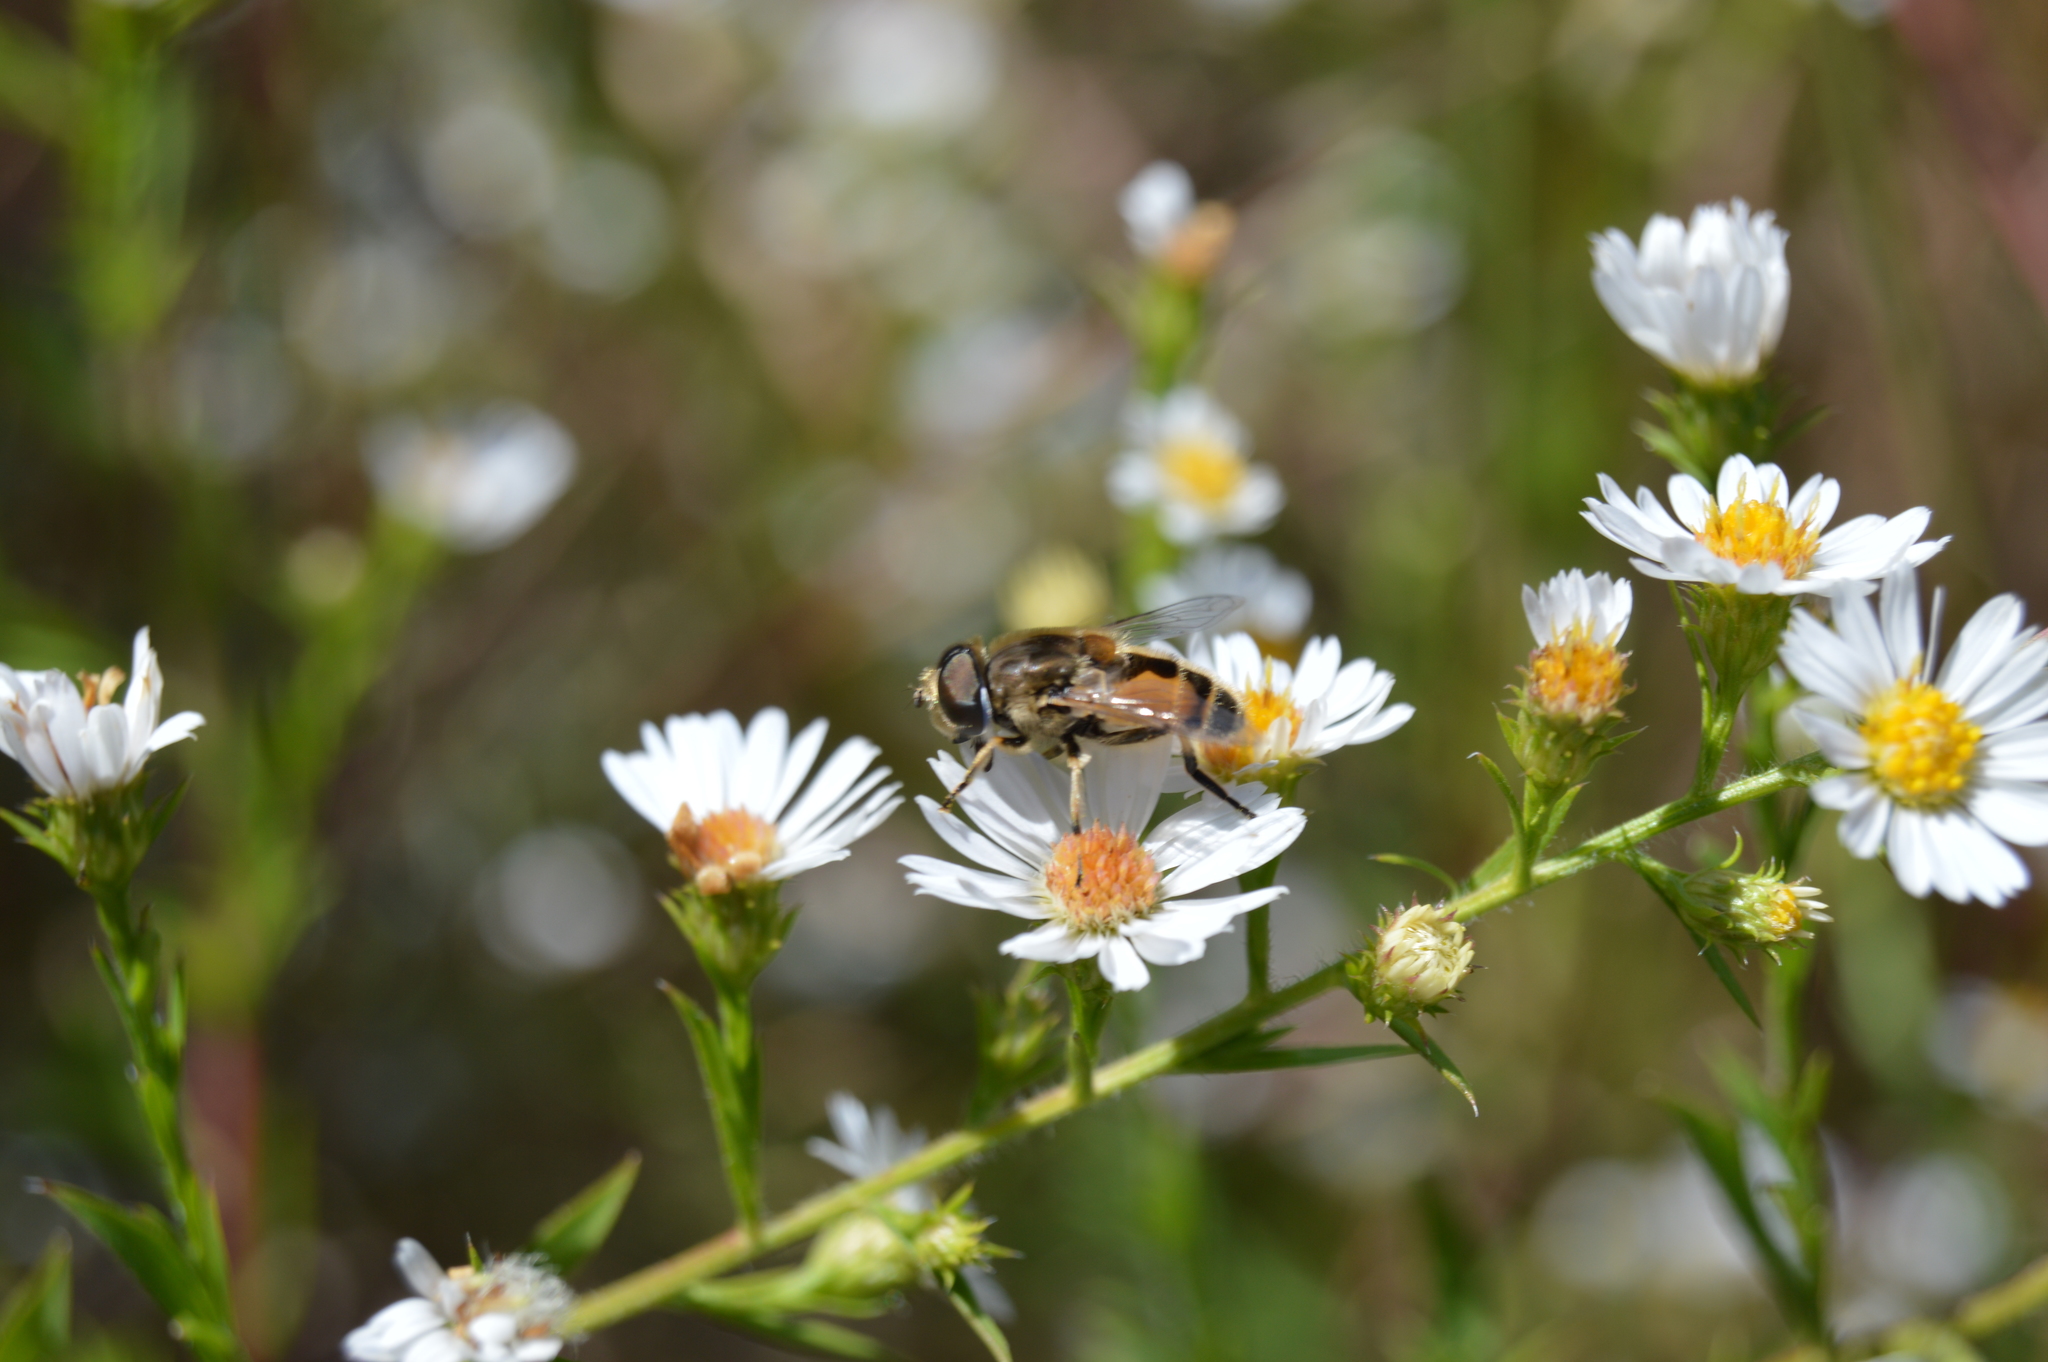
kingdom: Animalia
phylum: Arthropoda
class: Insecta
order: Diptera
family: Syrphidae
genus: Eristalis
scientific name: Eristalis arbustorum
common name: Hover fly
